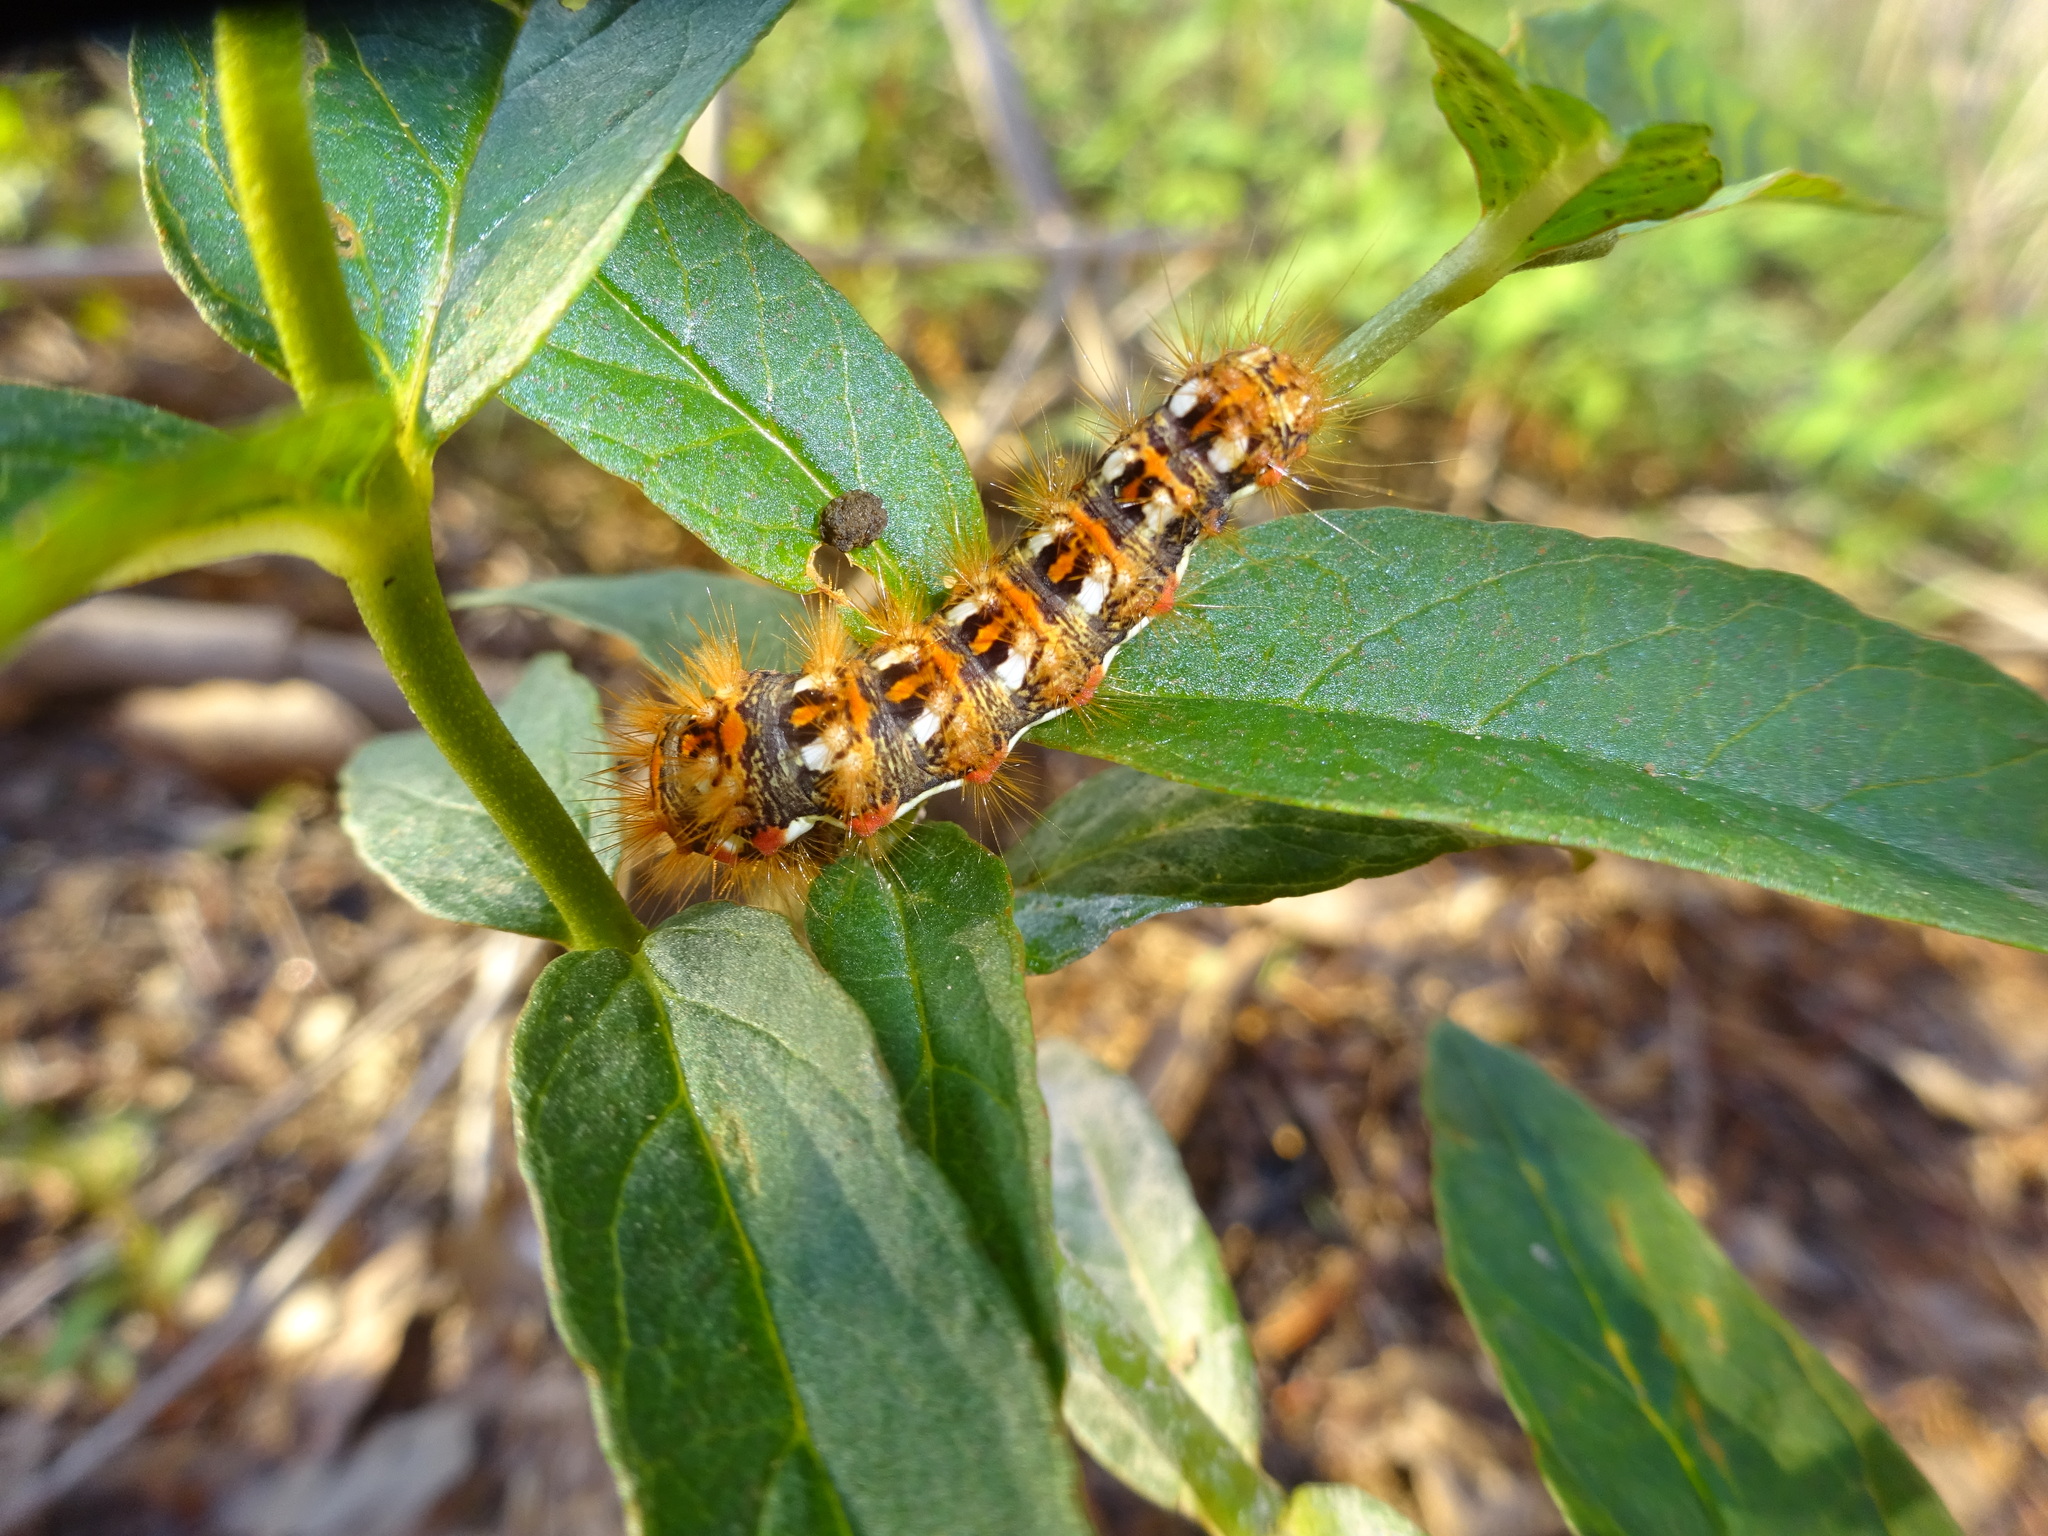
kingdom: Animalia
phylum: Arthropoda
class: Insecta
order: Lepidoptera
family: Noctuidae
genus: Acronicta
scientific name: Acronicta rumicis
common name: Knot grass
